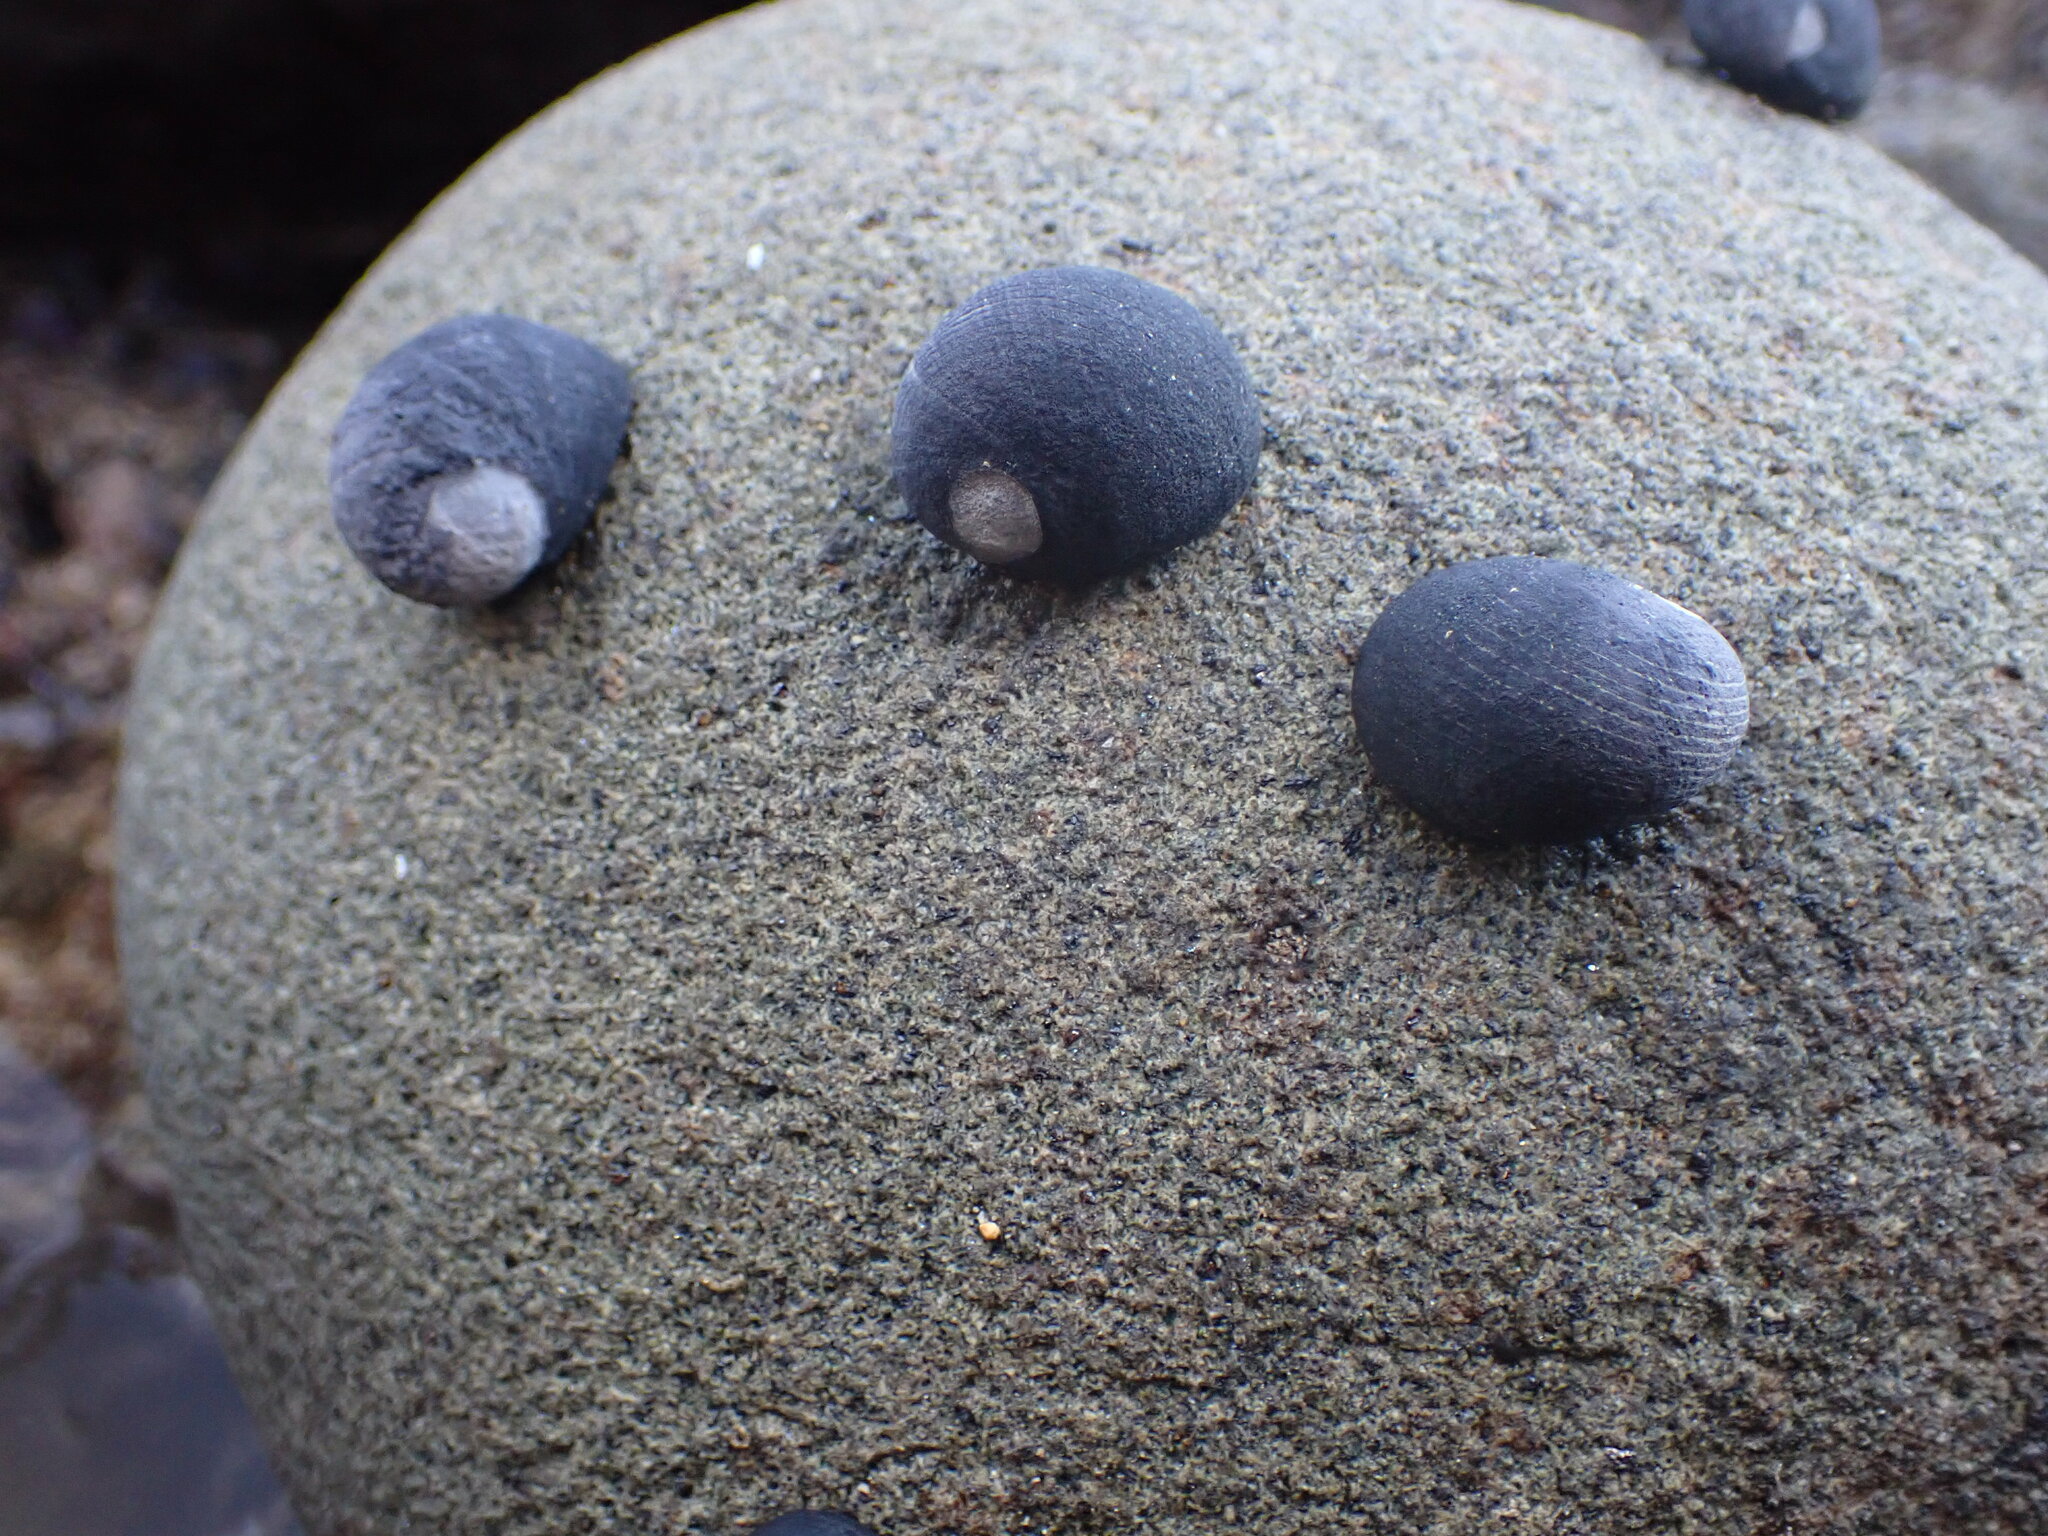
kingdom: Animalia
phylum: Mollusca
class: Gastropoda
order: Cycloneritida
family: Neritidae
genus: Nerita
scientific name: Nerita melanotragus
